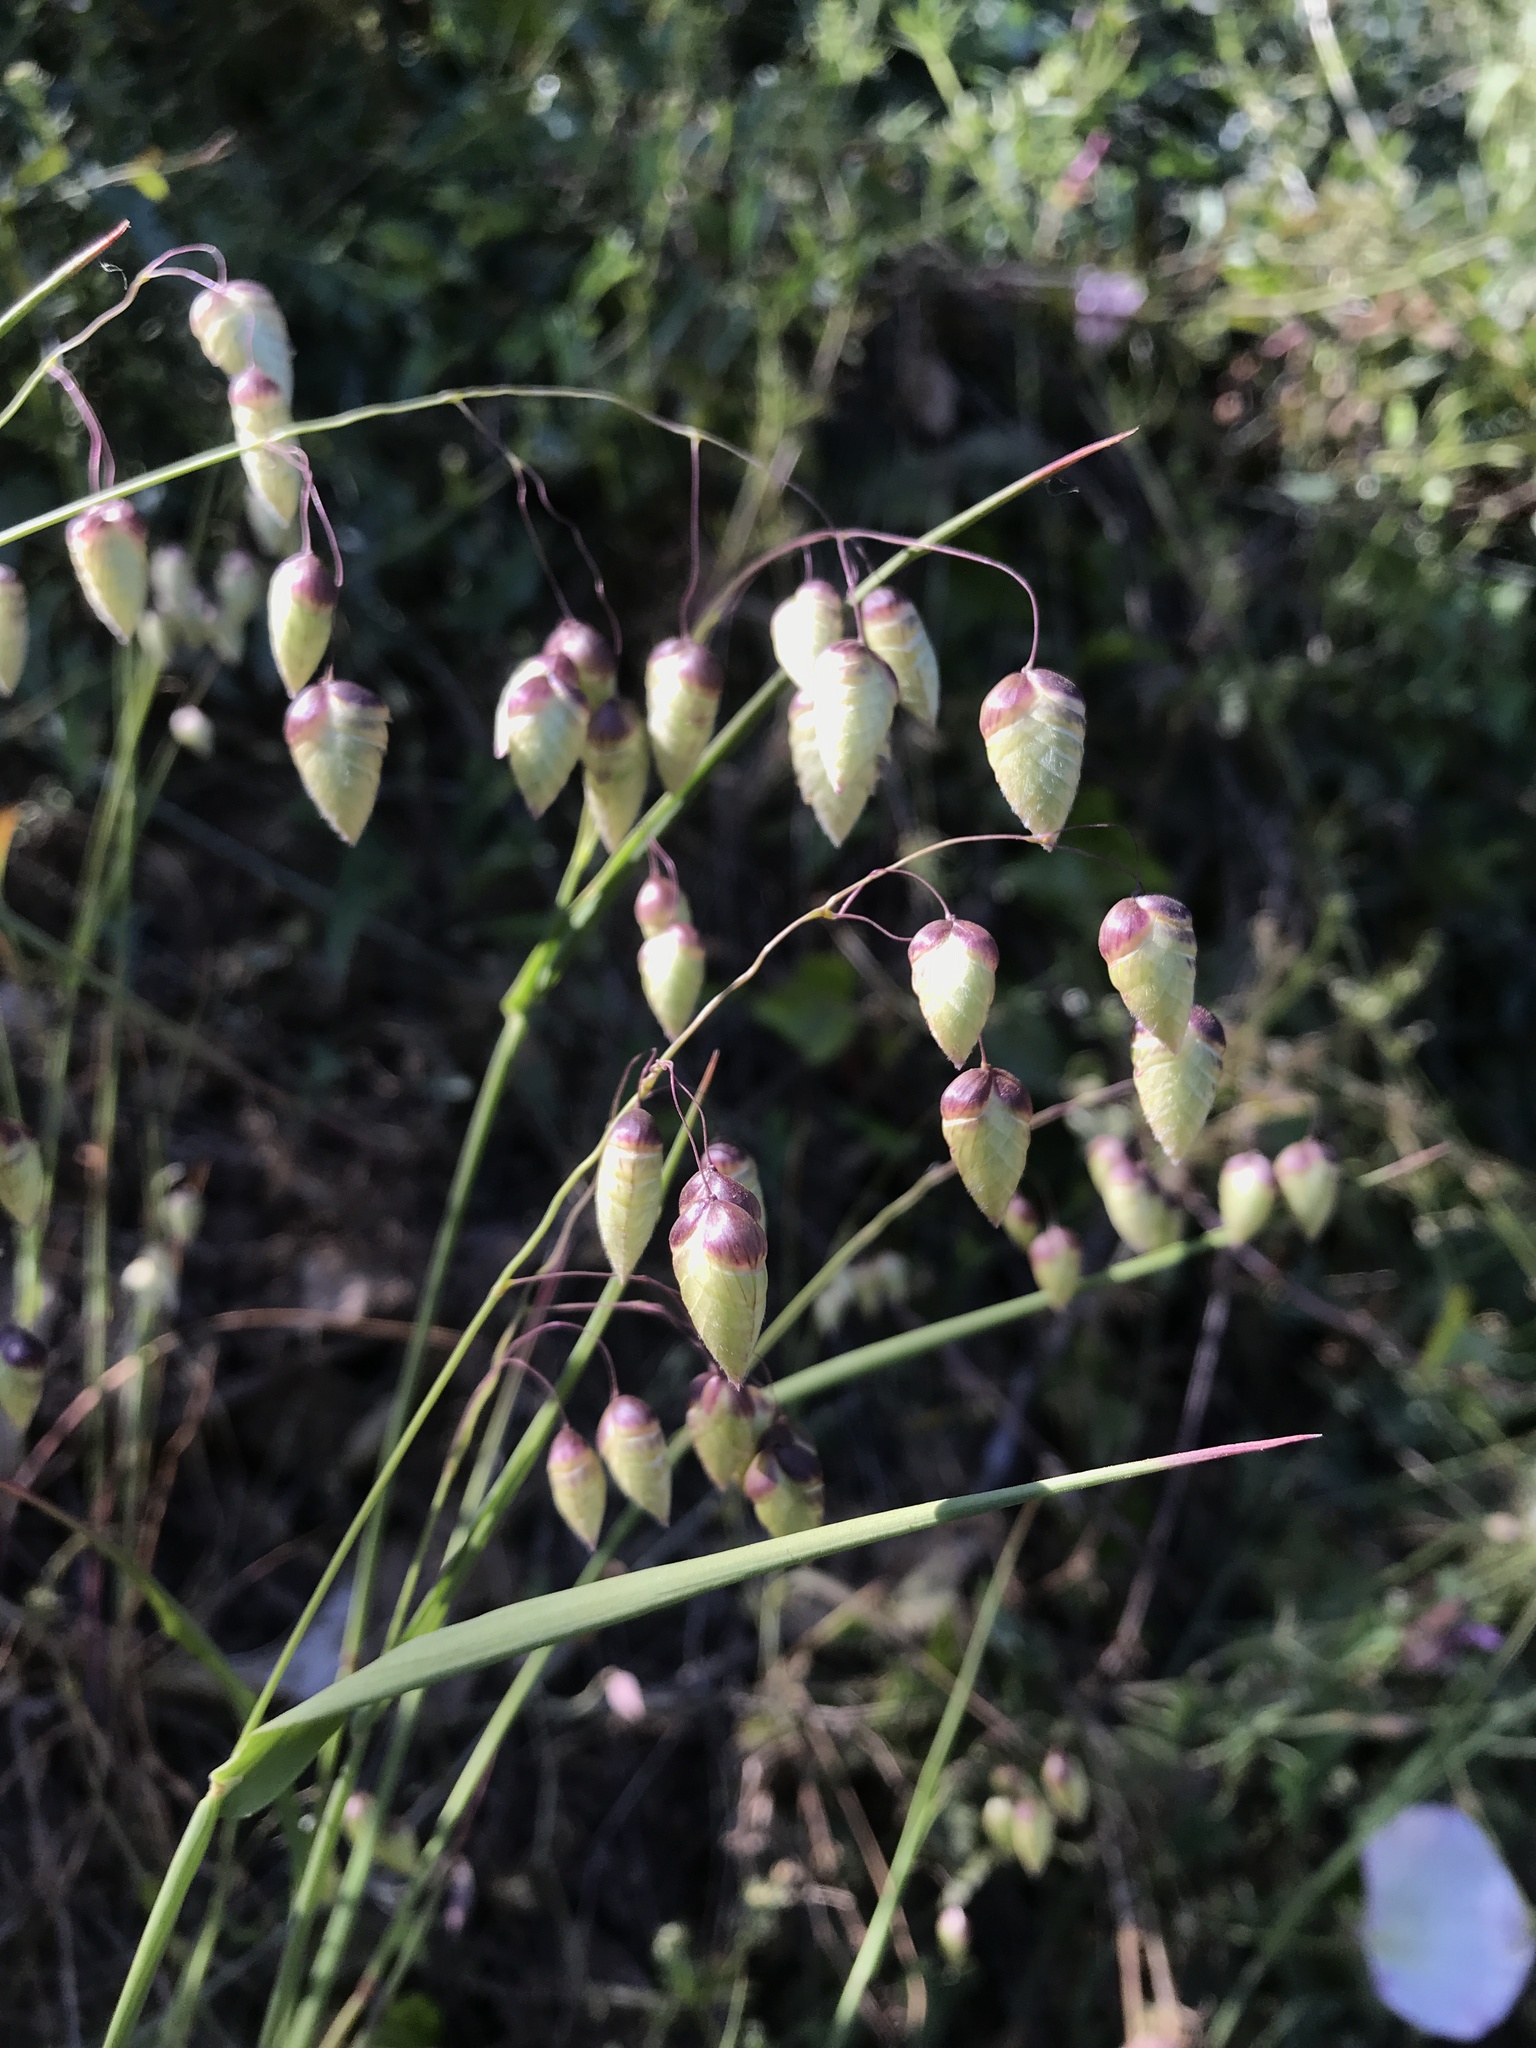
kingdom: Plantae
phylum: Tracheophyta
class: Liliopsida
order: Poales
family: Poaceae
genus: Briza
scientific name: Briza maxima
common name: Big quakinggrass
